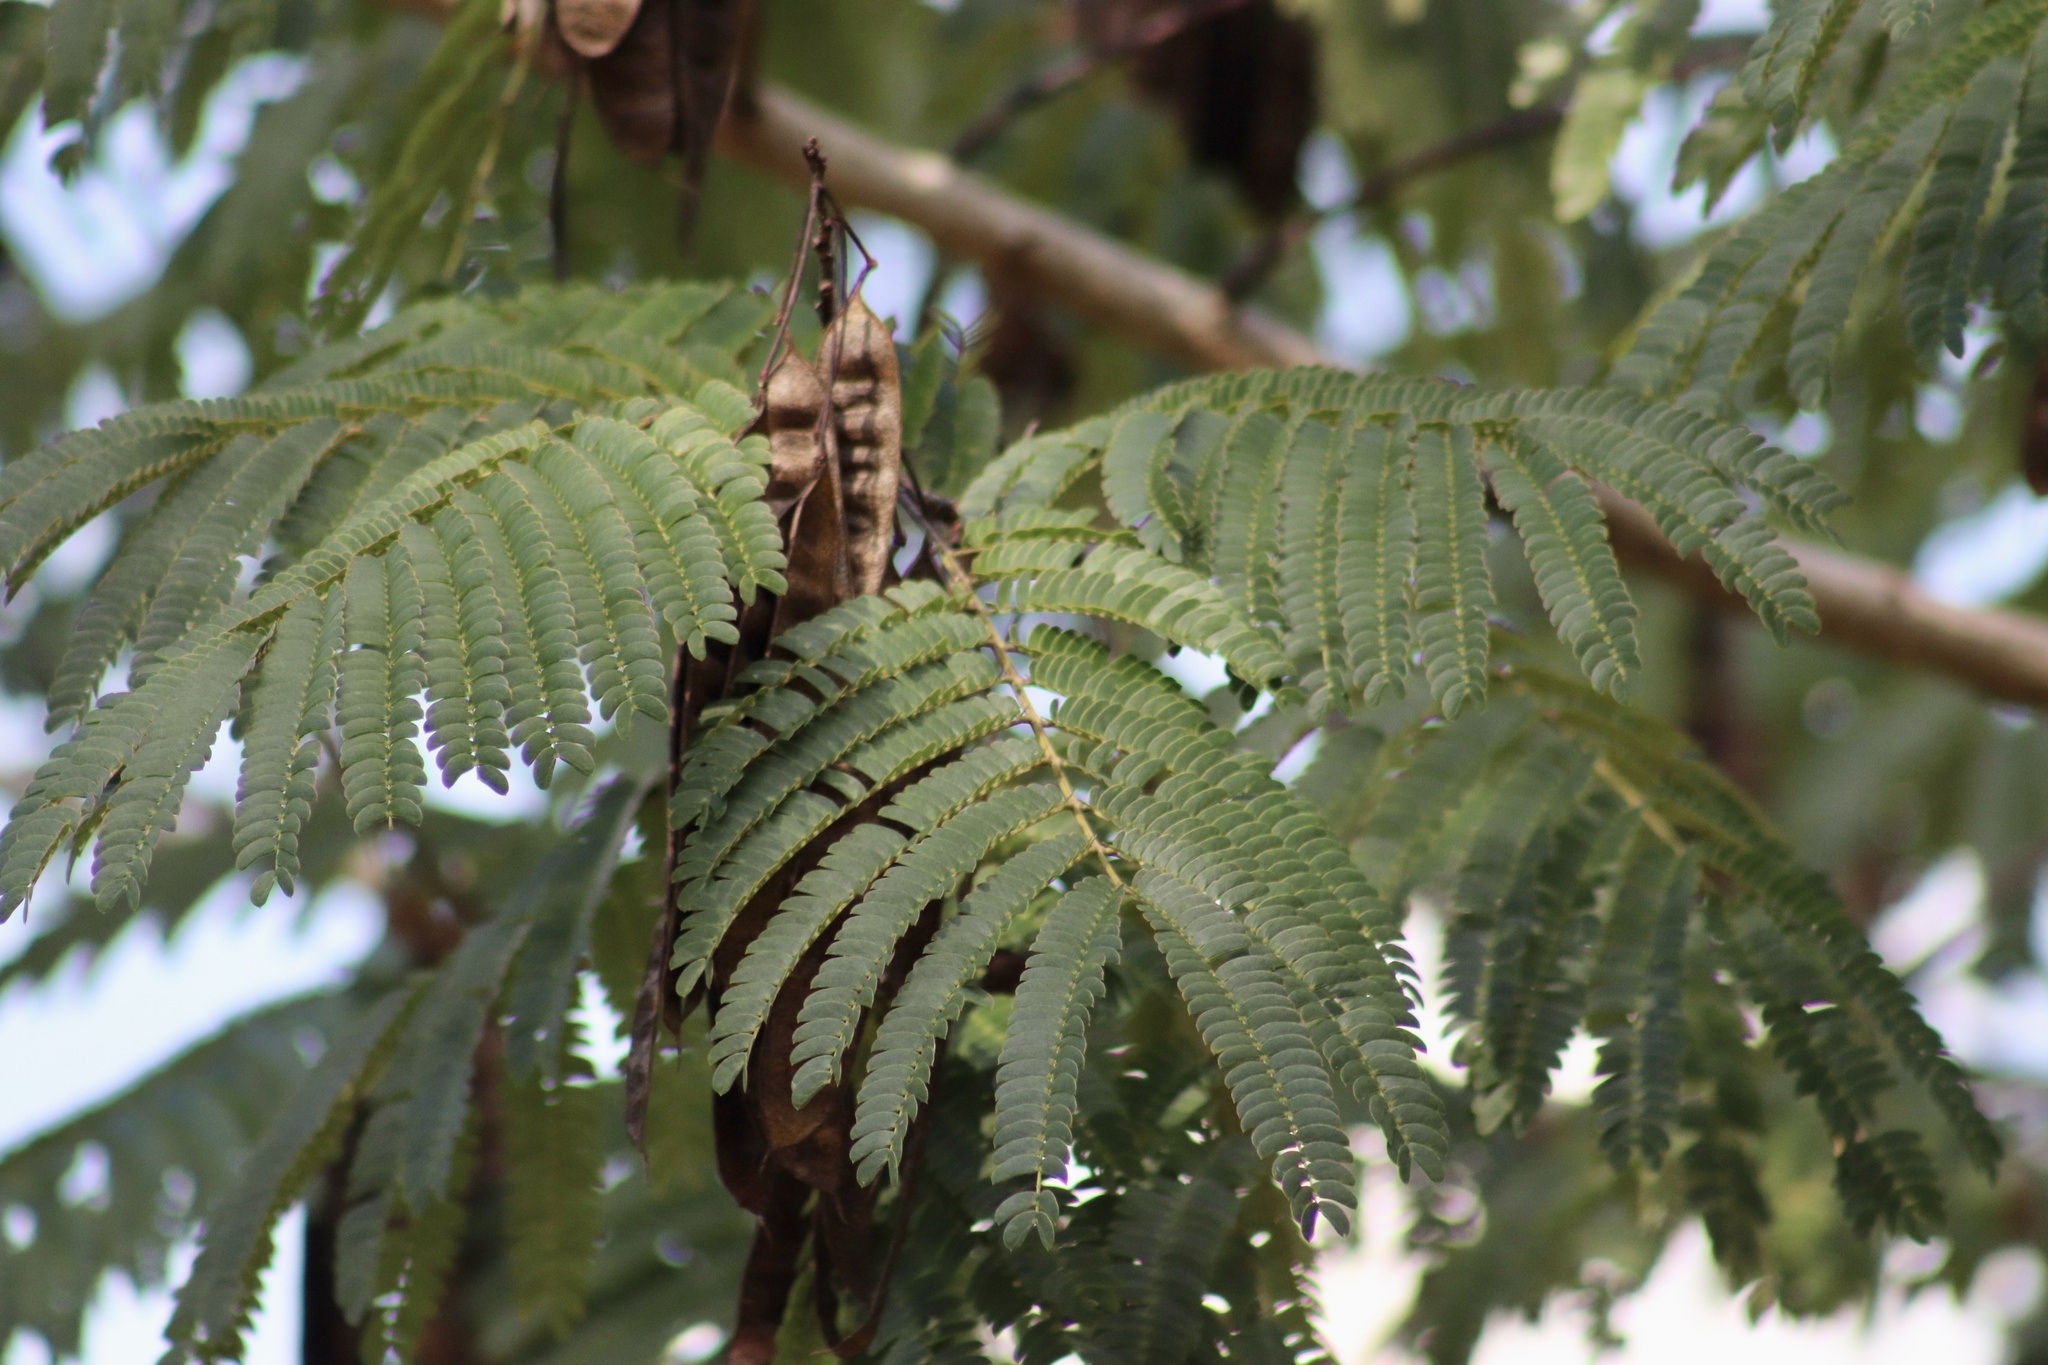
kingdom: Plantae
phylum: Tracheophyta
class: Magnoliopsida
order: Fabales
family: Fabaceae
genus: Albizia
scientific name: Albizia julibrissin
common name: Silktree
